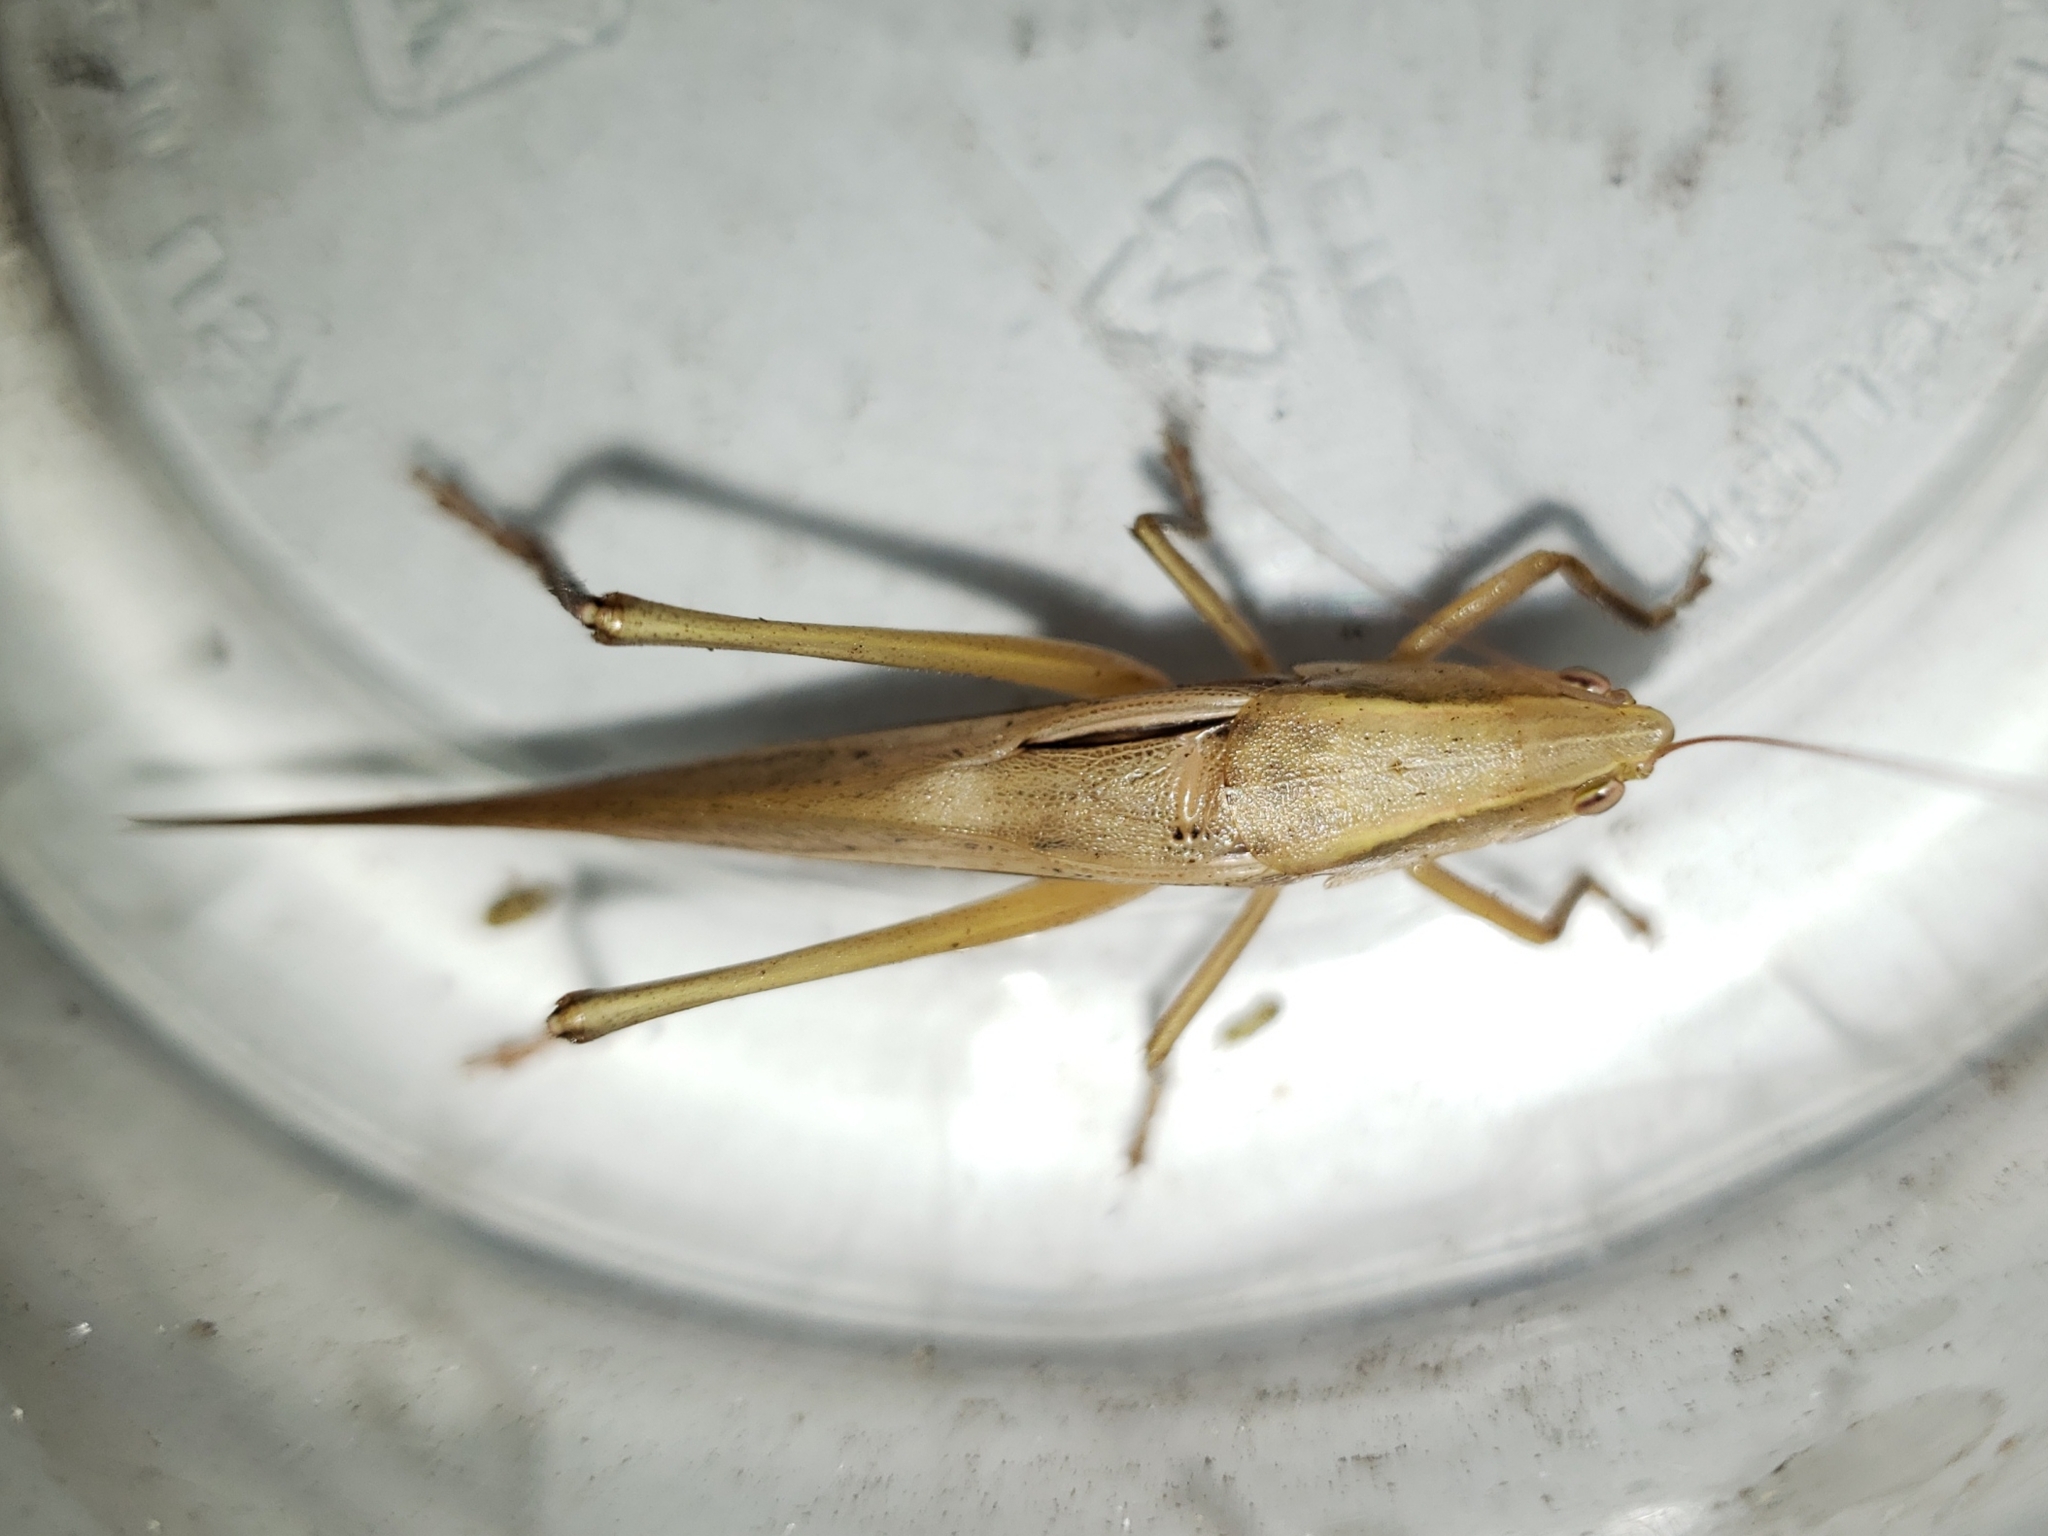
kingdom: Animalia
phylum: Arthropoda
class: Insecta
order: Orthoptera
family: Tettigoniidae
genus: Neoconocephalus
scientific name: Neoconocephalus triops
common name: Broad-tipped conehead
